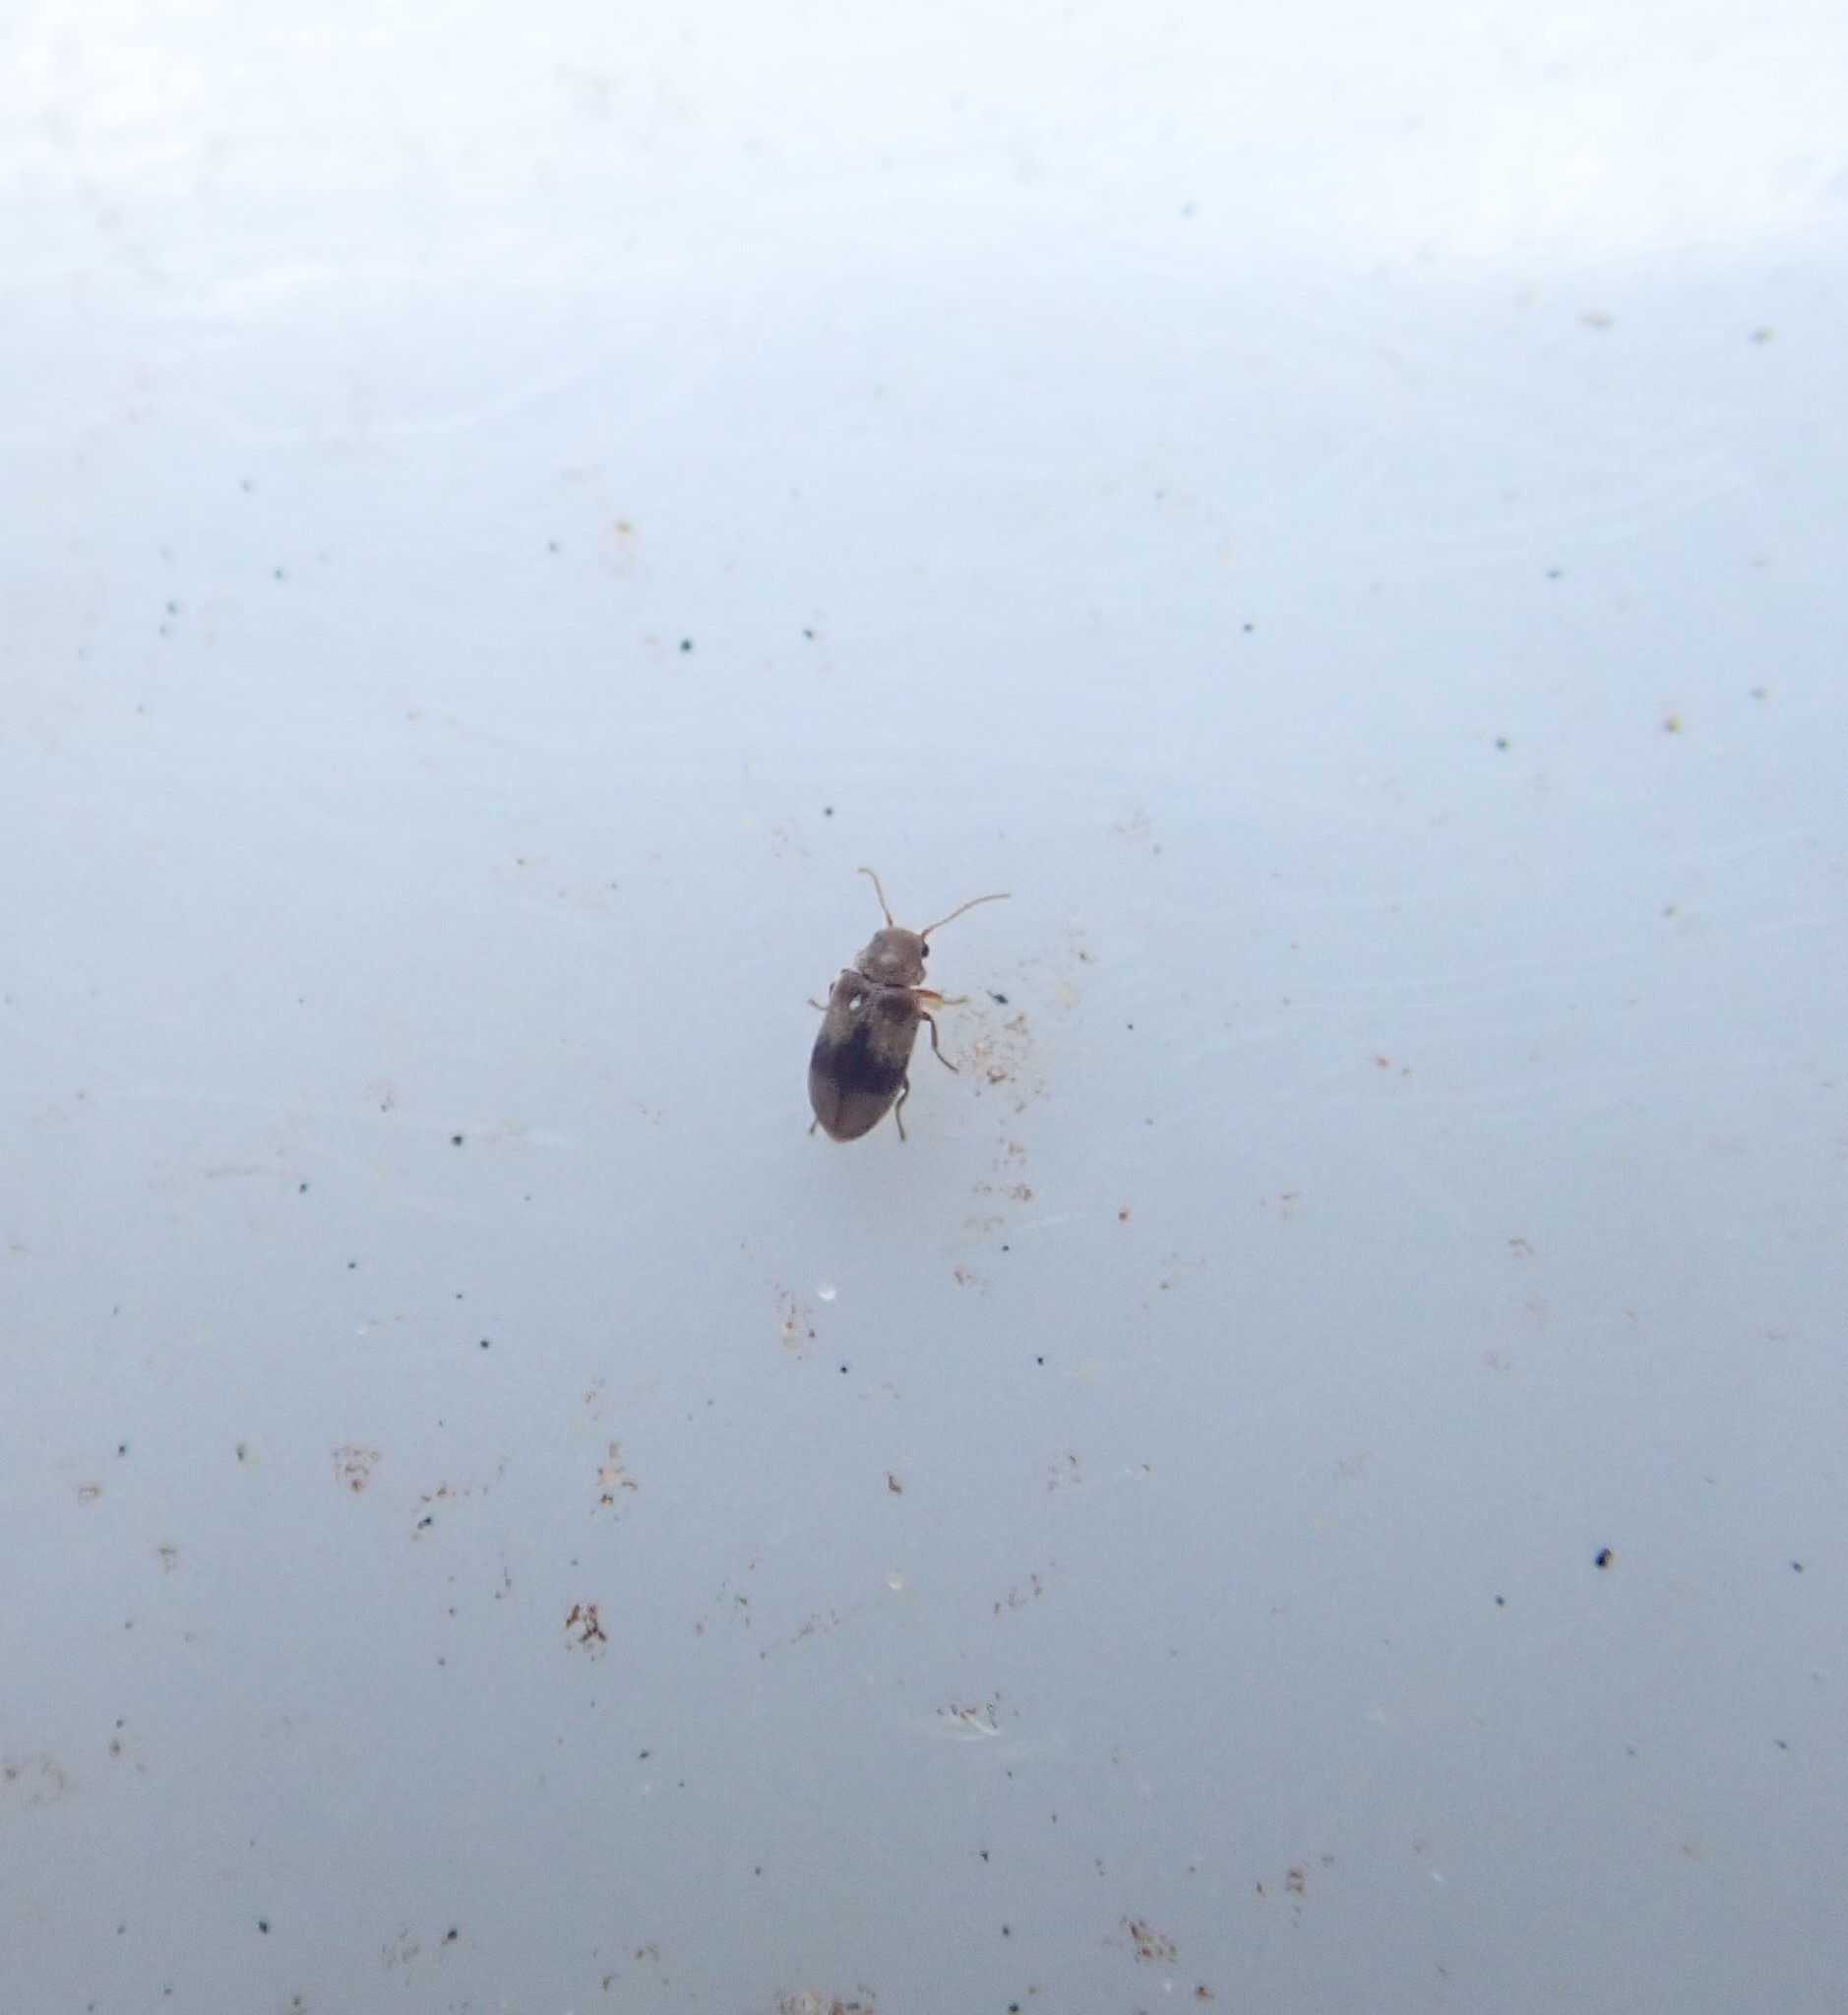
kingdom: Animalia
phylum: Arthropoda
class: Insecta
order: Coleoptera
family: Ptinidae
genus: Ochina
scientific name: Ochina ptinoides
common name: Ivy boring beetle
